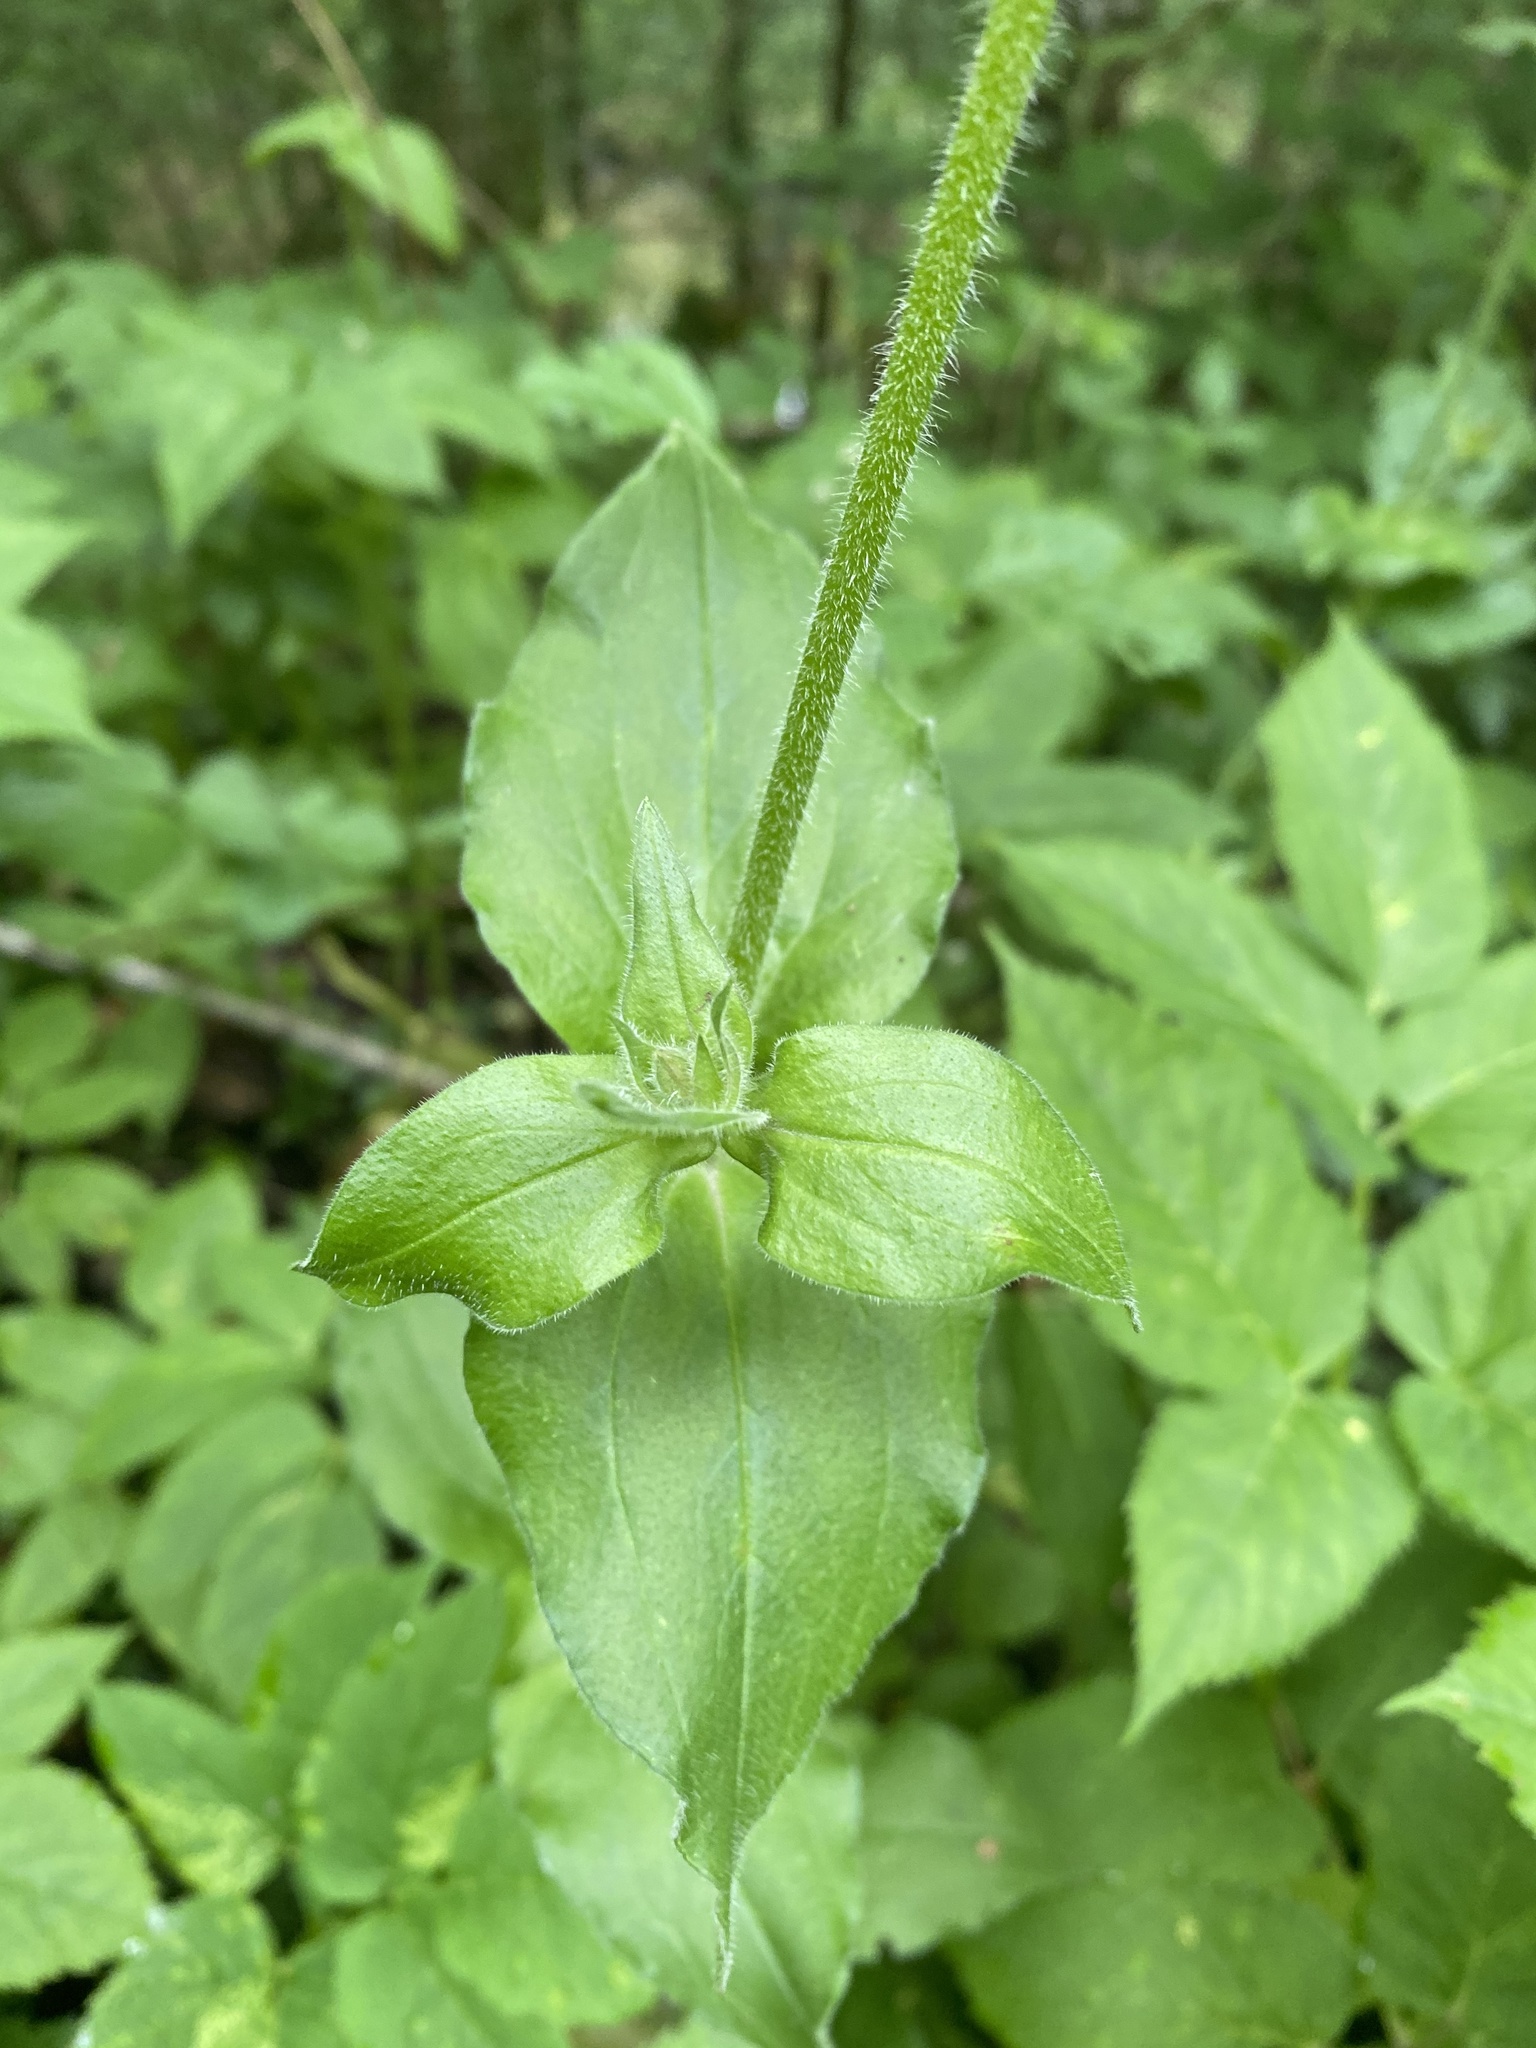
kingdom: Plantae
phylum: Tracheophyta
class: Magnoliopsida
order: Caryophyllales
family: Caryophyllaceae
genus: Silene
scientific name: Silene dioica
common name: Red campion
